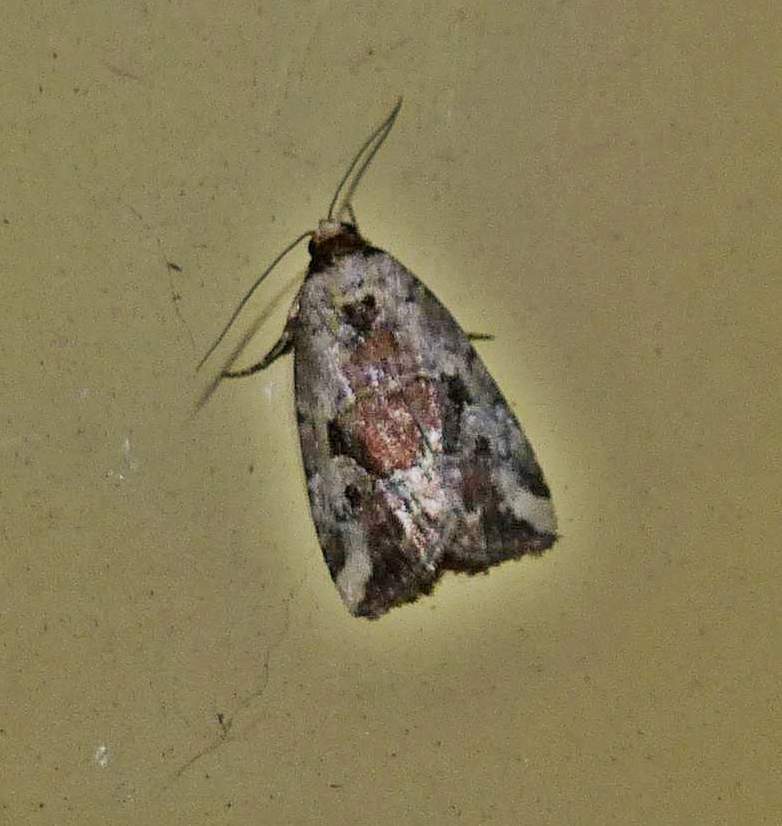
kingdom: Animalia
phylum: Arthropoda
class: Insecta
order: Lepidoptera
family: Noctuidae
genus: Elaphria
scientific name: Elaphria alapallida
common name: Pale-winged midget
